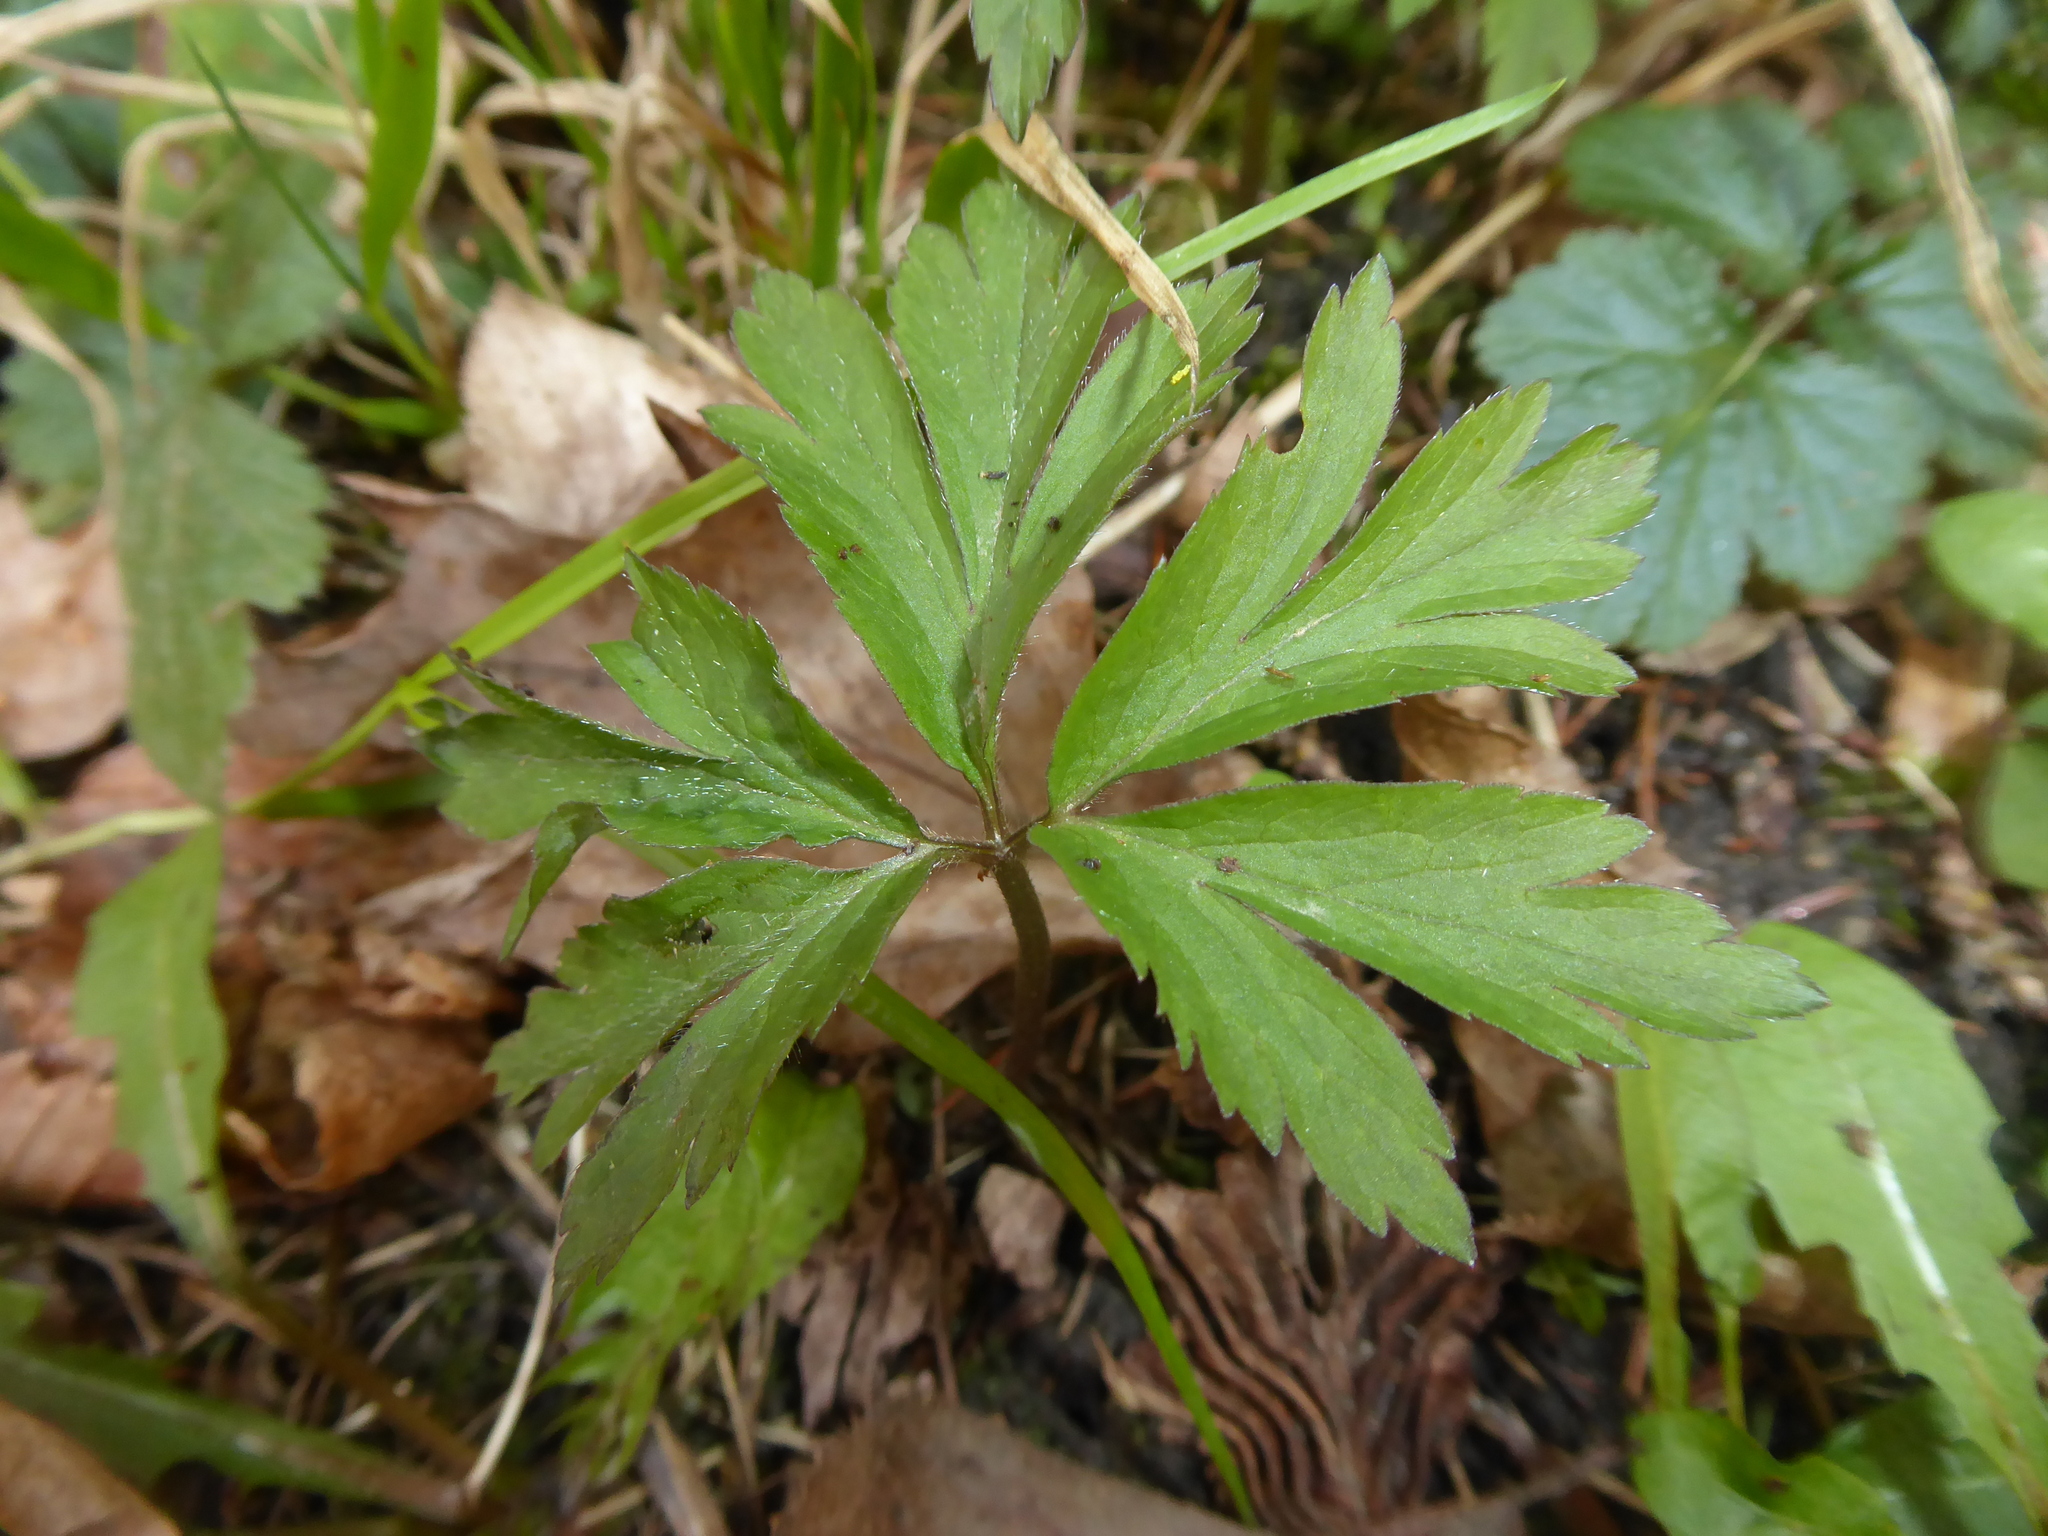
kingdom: Plantae
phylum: Tracheophyta
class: Magnoliopsida
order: Ranunculales
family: Ranunculaceae
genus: Anemone
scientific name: Anemone nemorosa
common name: Wood anemone
